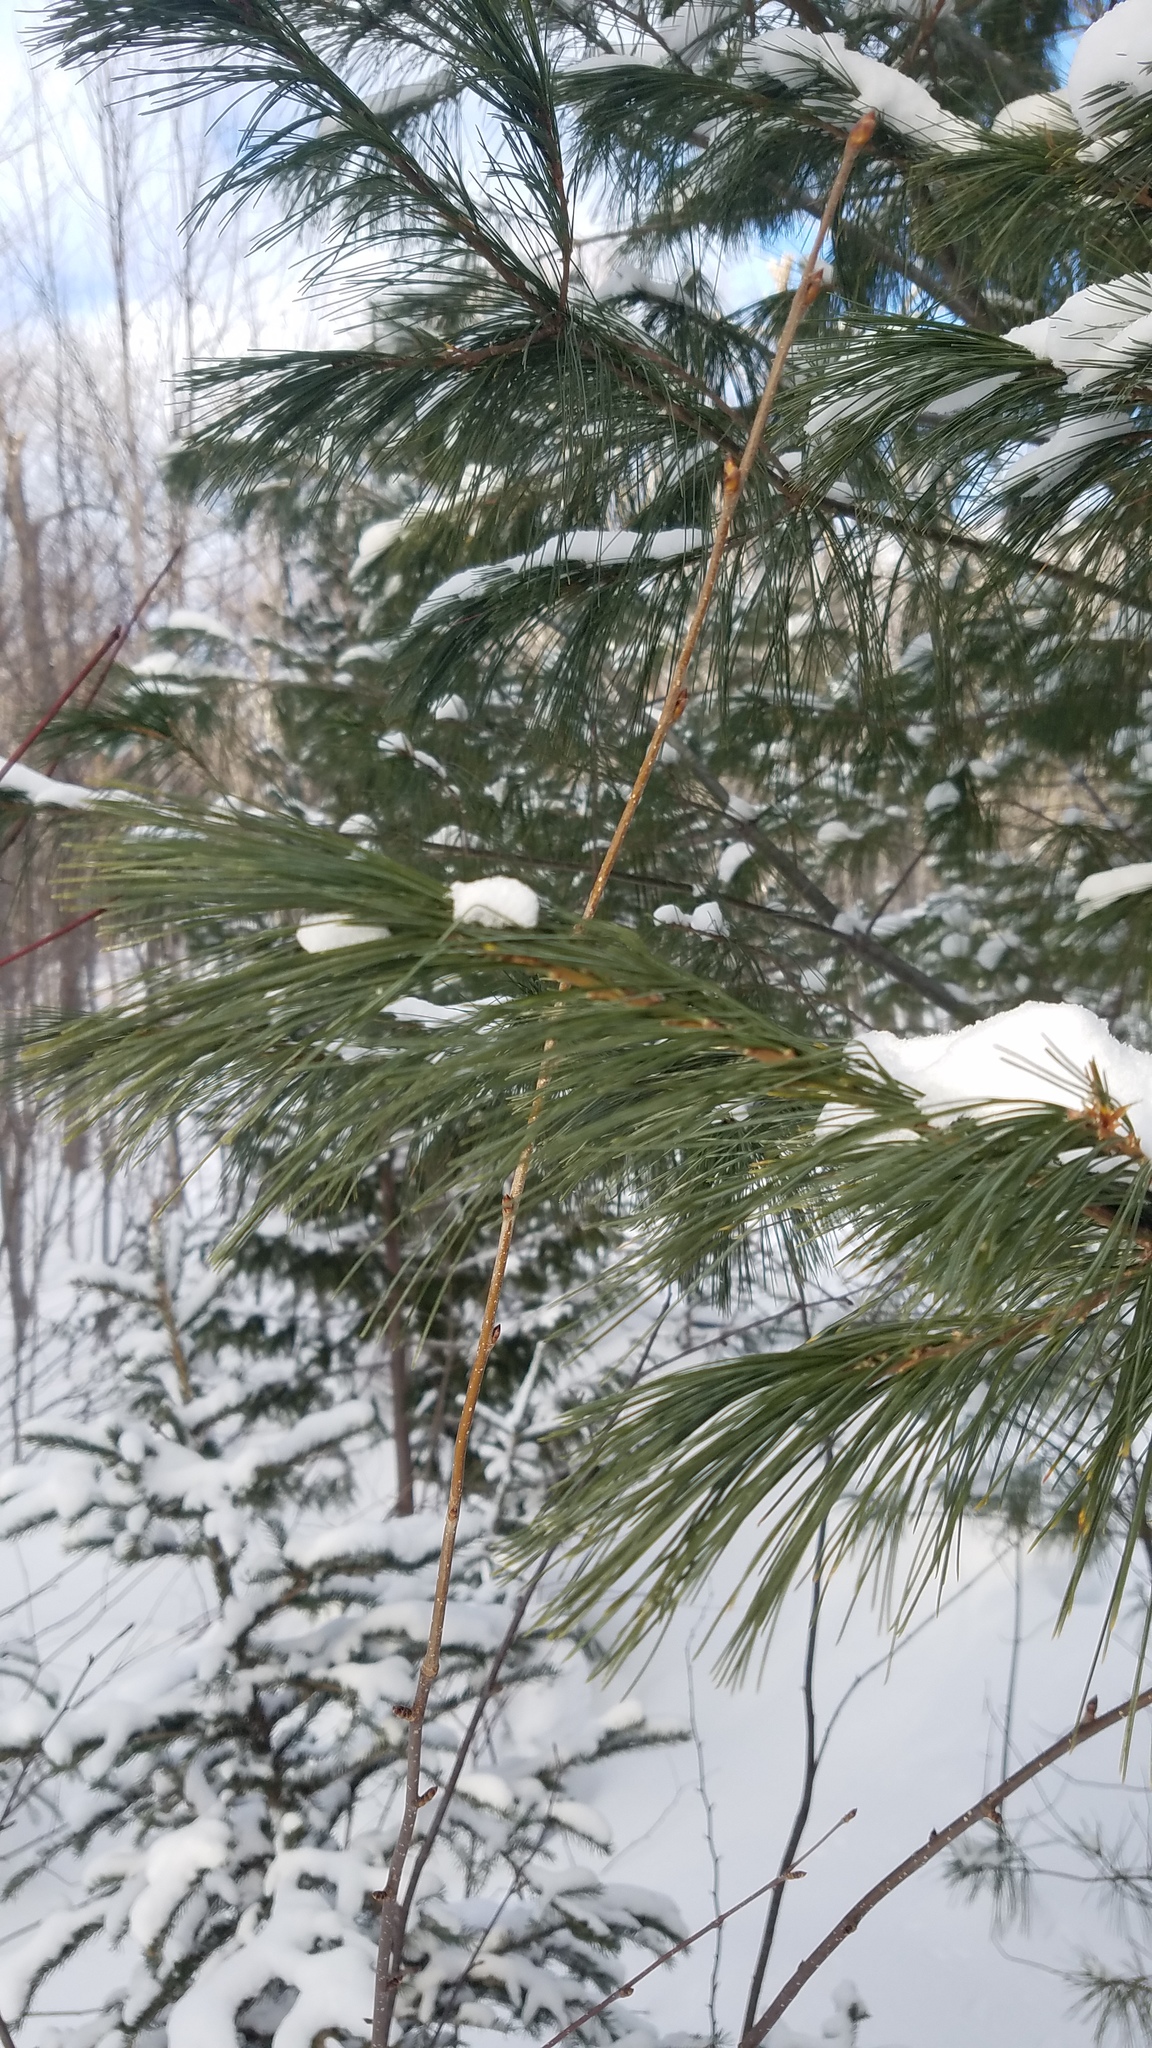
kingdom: Plantae
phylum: Tracheophyta
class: Pinopsida
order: Pinales
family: Pinaceae
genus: Pinus
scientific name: Pinus strobus
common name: Weymouth pine
